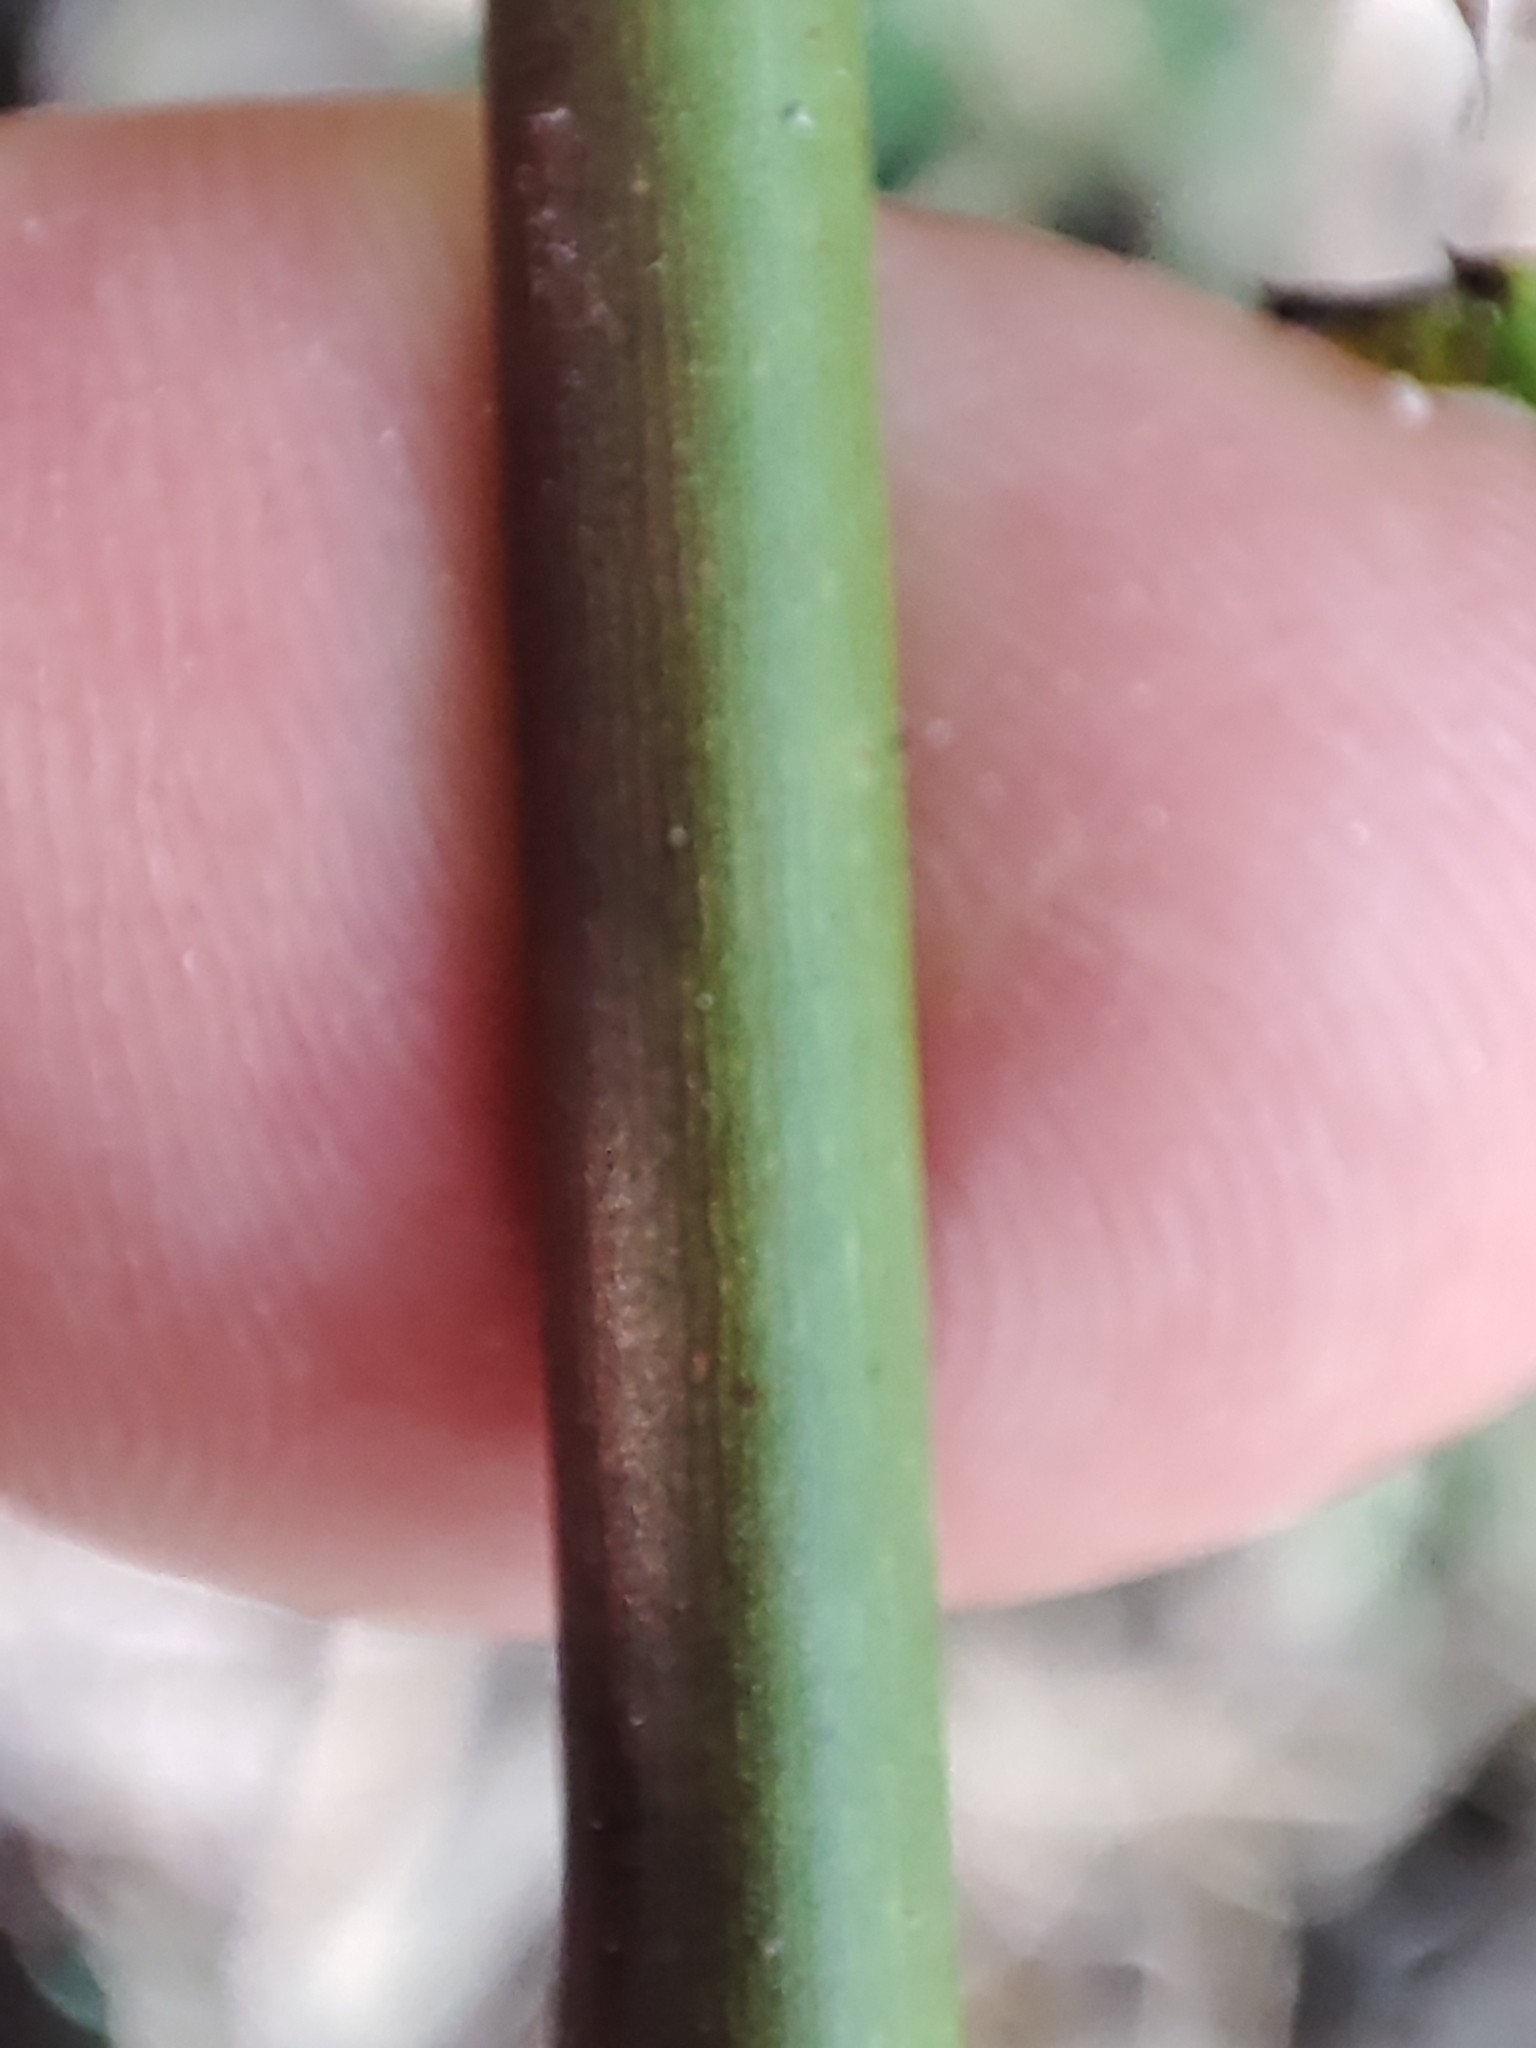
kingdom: Plantae
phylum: Tracheophyta
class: Magnoliopsida
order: Rosales
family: Rosaceae
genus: Rosa
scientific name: Rosa multiflora
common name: Multiflora rose
